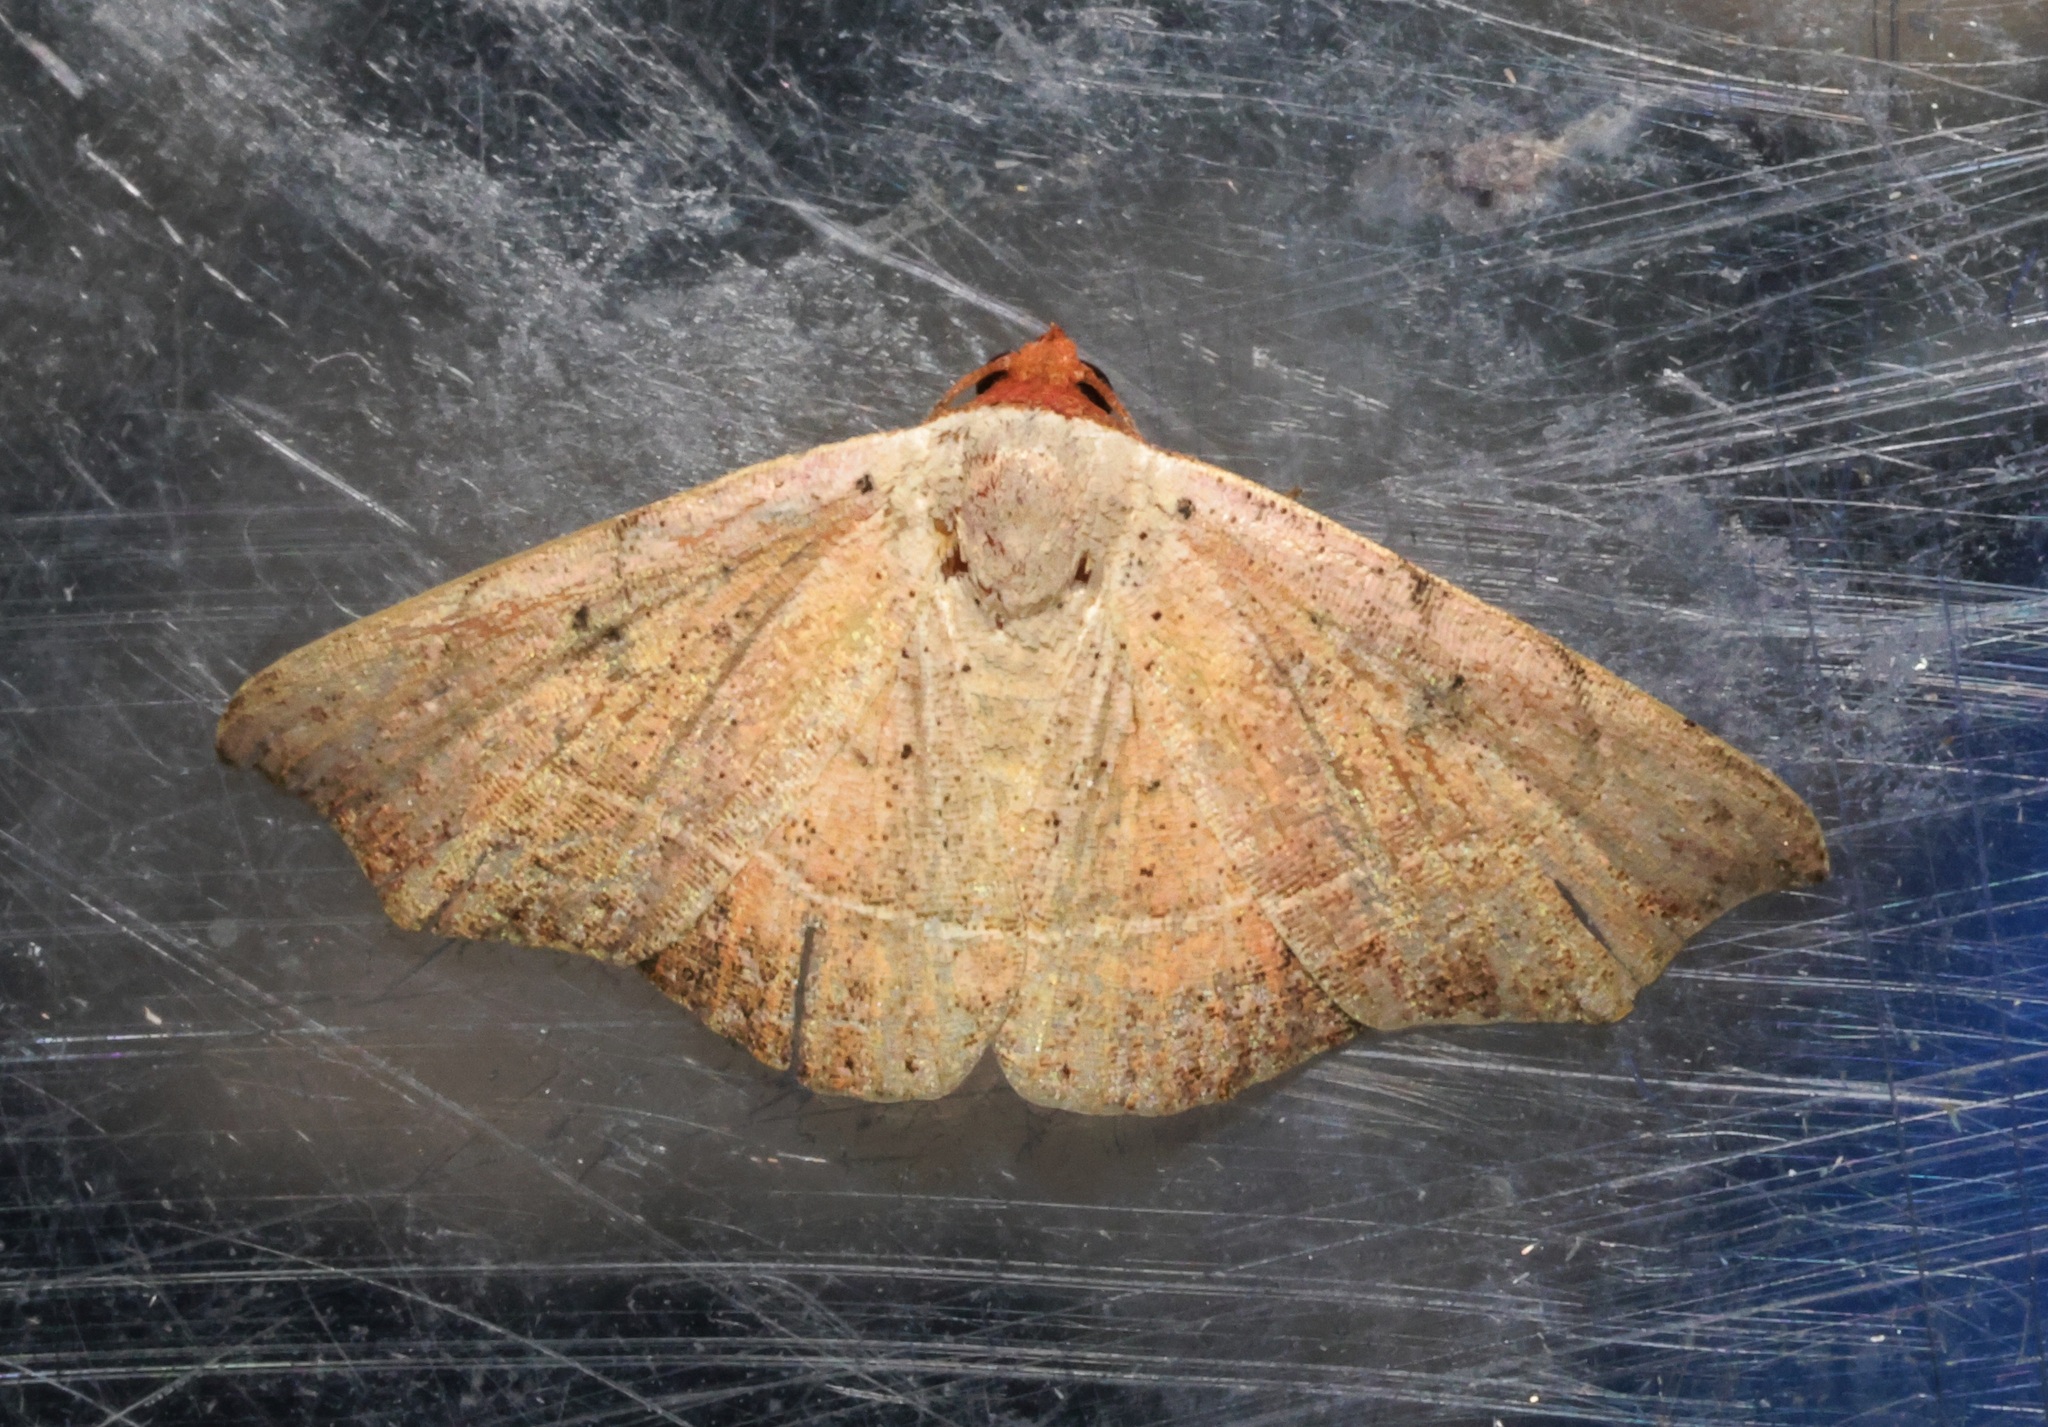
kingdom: Animalia
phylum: Arthropoda
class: Insecta
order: Lepidoptera
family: Erebidae
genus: Laspeyria
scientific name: Laspeyria ruficeps
